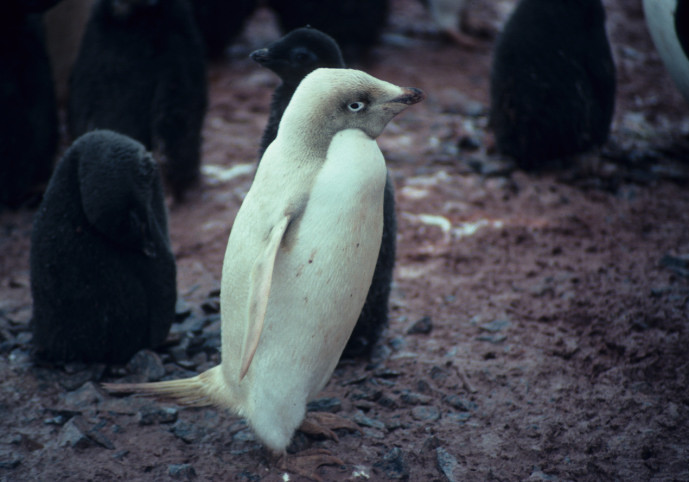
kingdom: Animalia
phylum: Chordata
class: Aves
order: Sphenisciformes
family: Spheniscidae
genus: Pygoscelis
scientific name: Pygoscelis adeliae
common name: Adelie penguin
